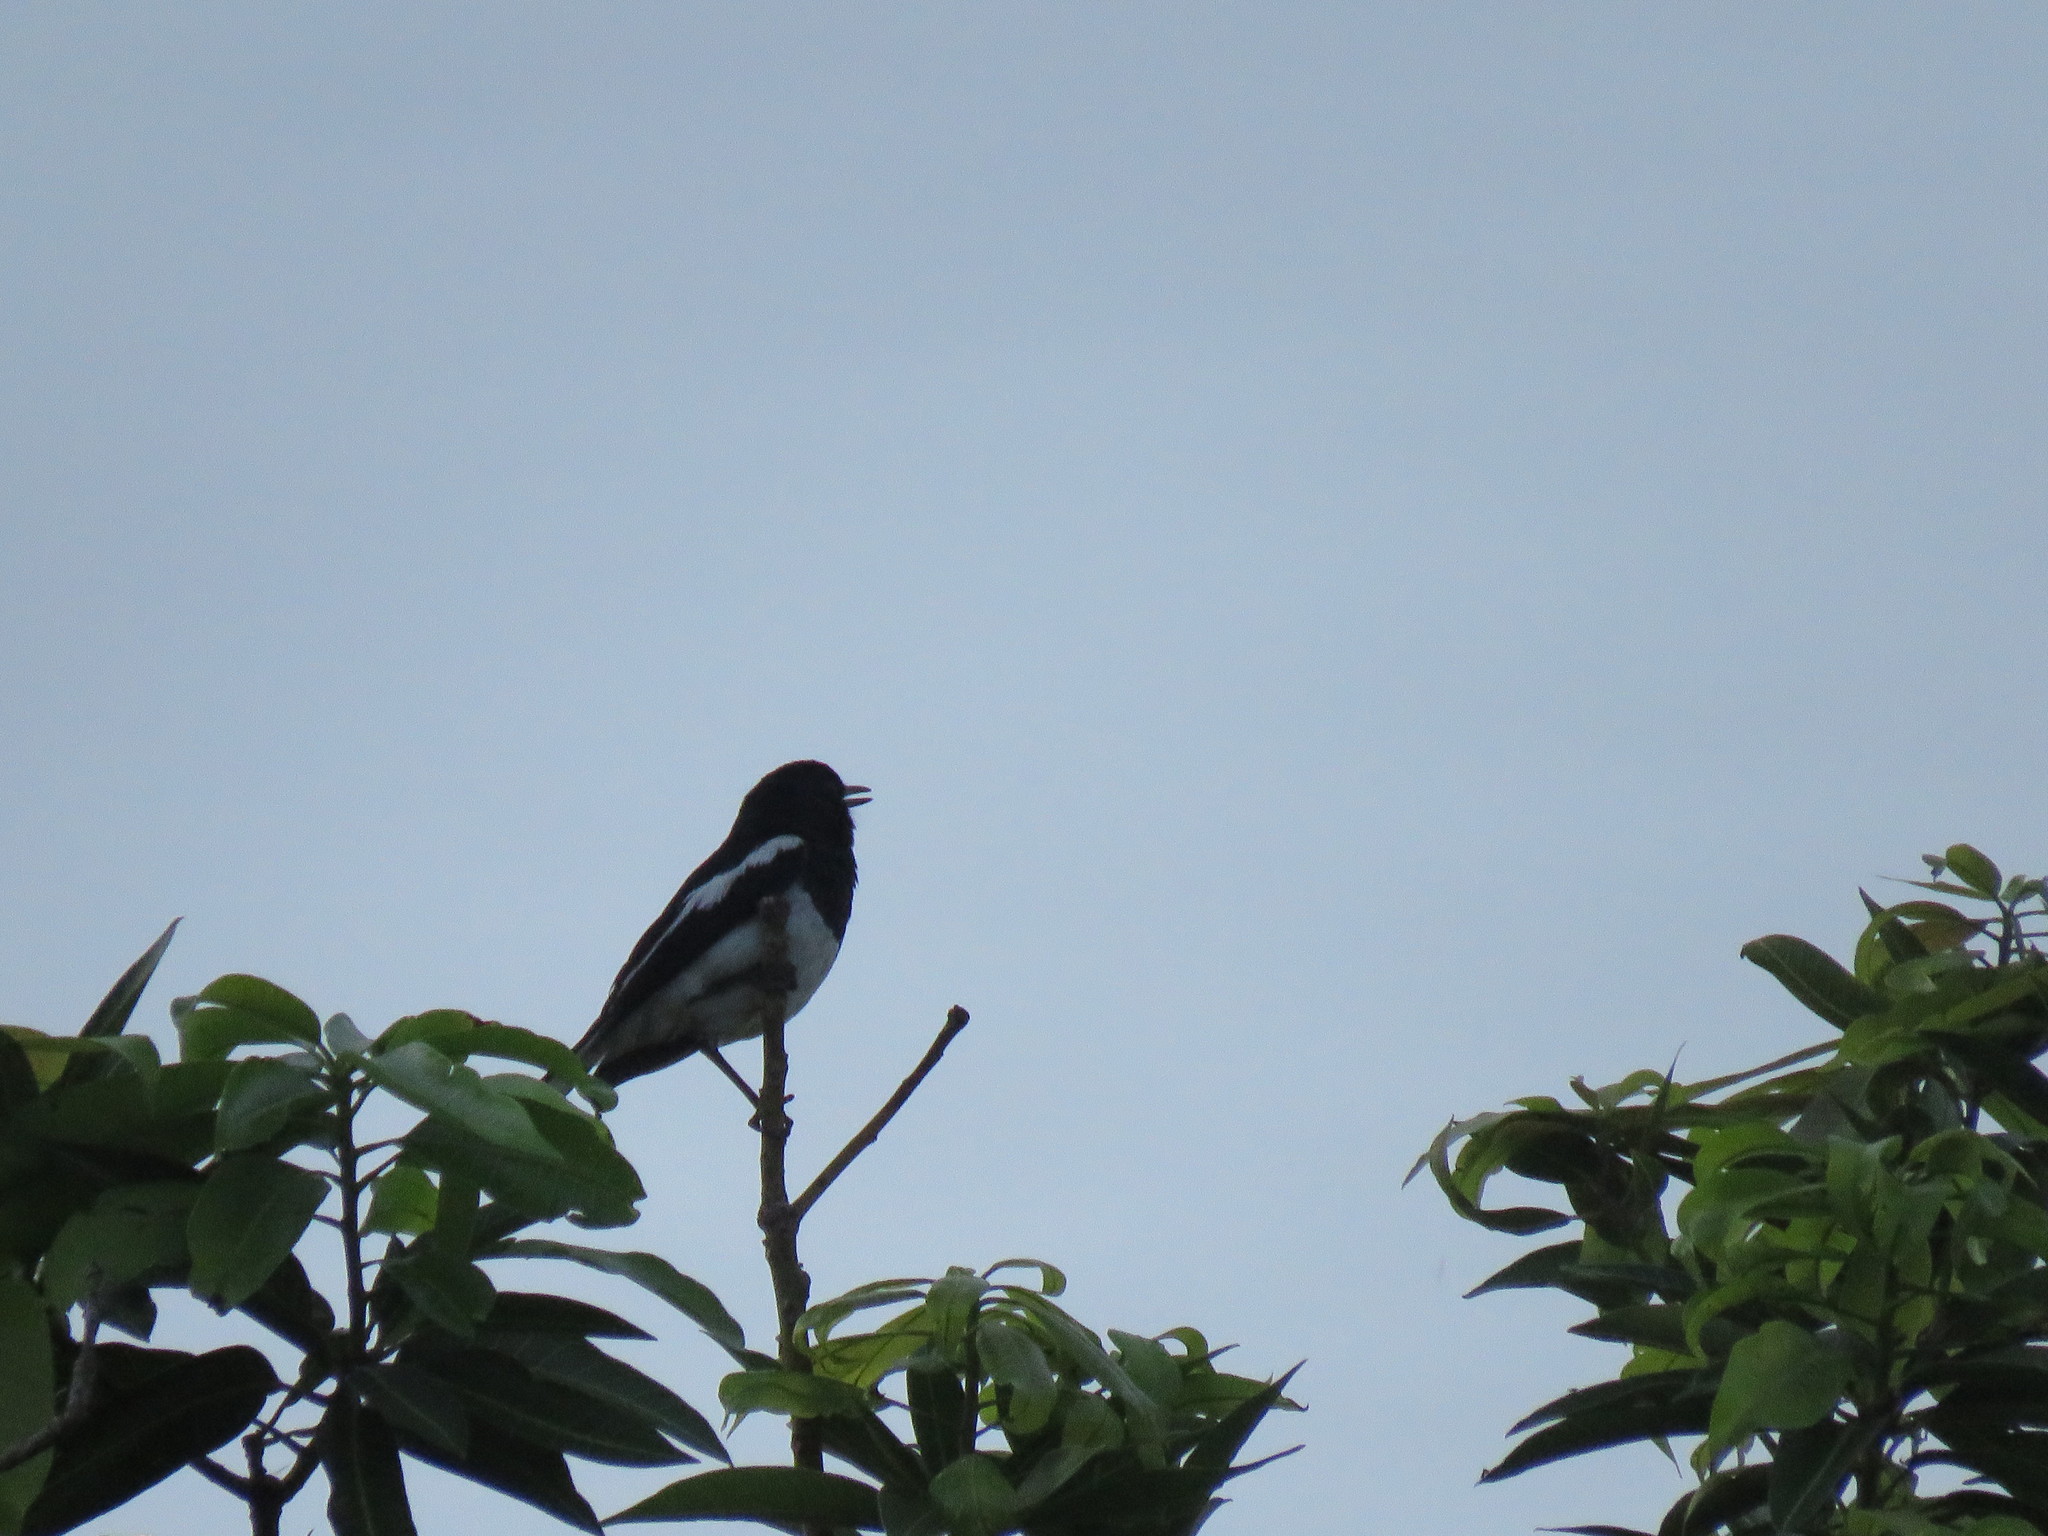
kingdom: Animalia
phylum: Chordata
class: Aves
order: Passeriformes
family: Muscicapidae
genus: Copsychus
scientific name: Copsychus saularis
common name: Oriental magpie-robin
